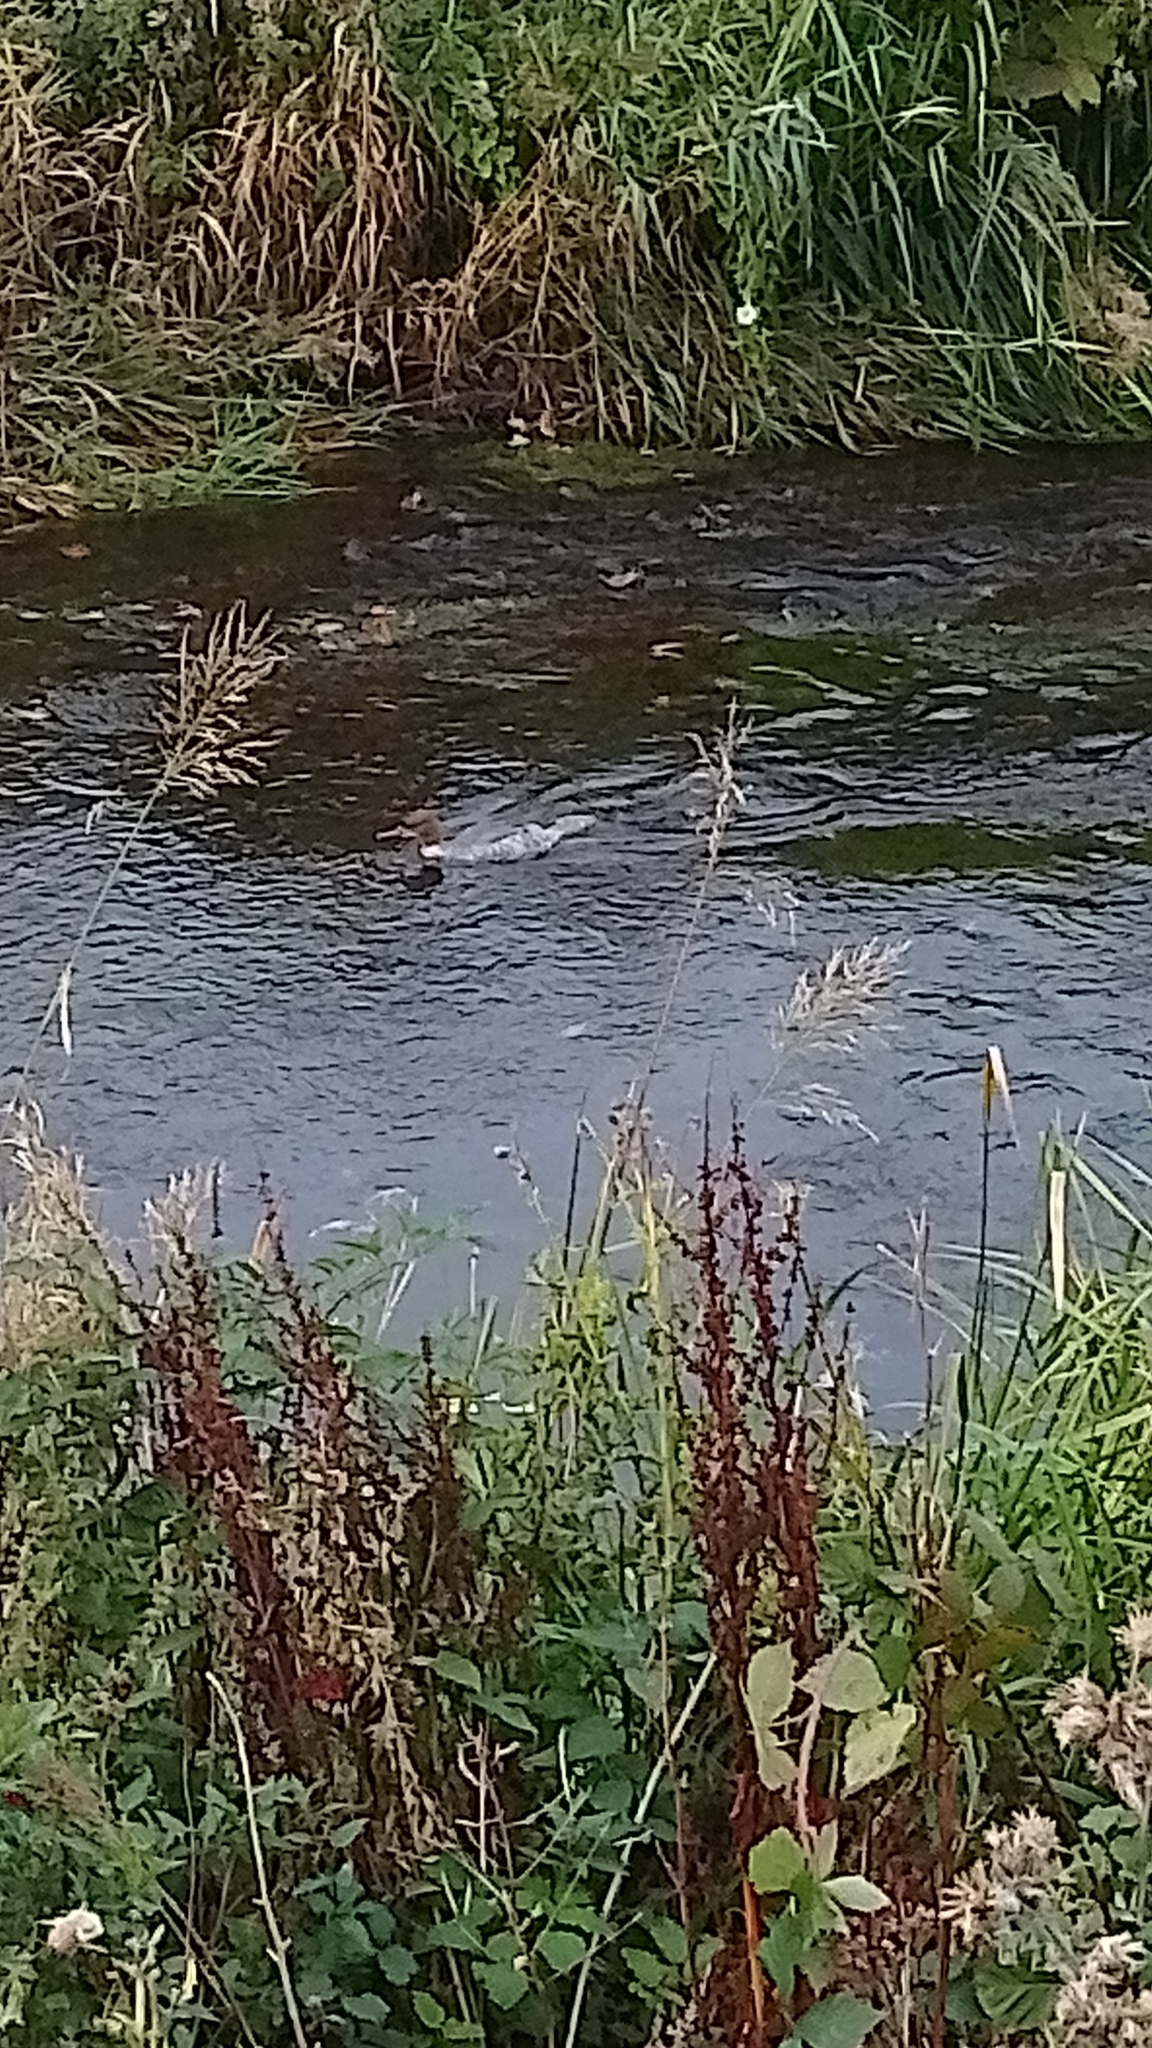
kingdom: Animalia
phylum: Chordata
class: Aves
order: Anseriformes
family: Anatidae
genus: Mergus
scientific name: Mergus merganser
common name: Common merganser
